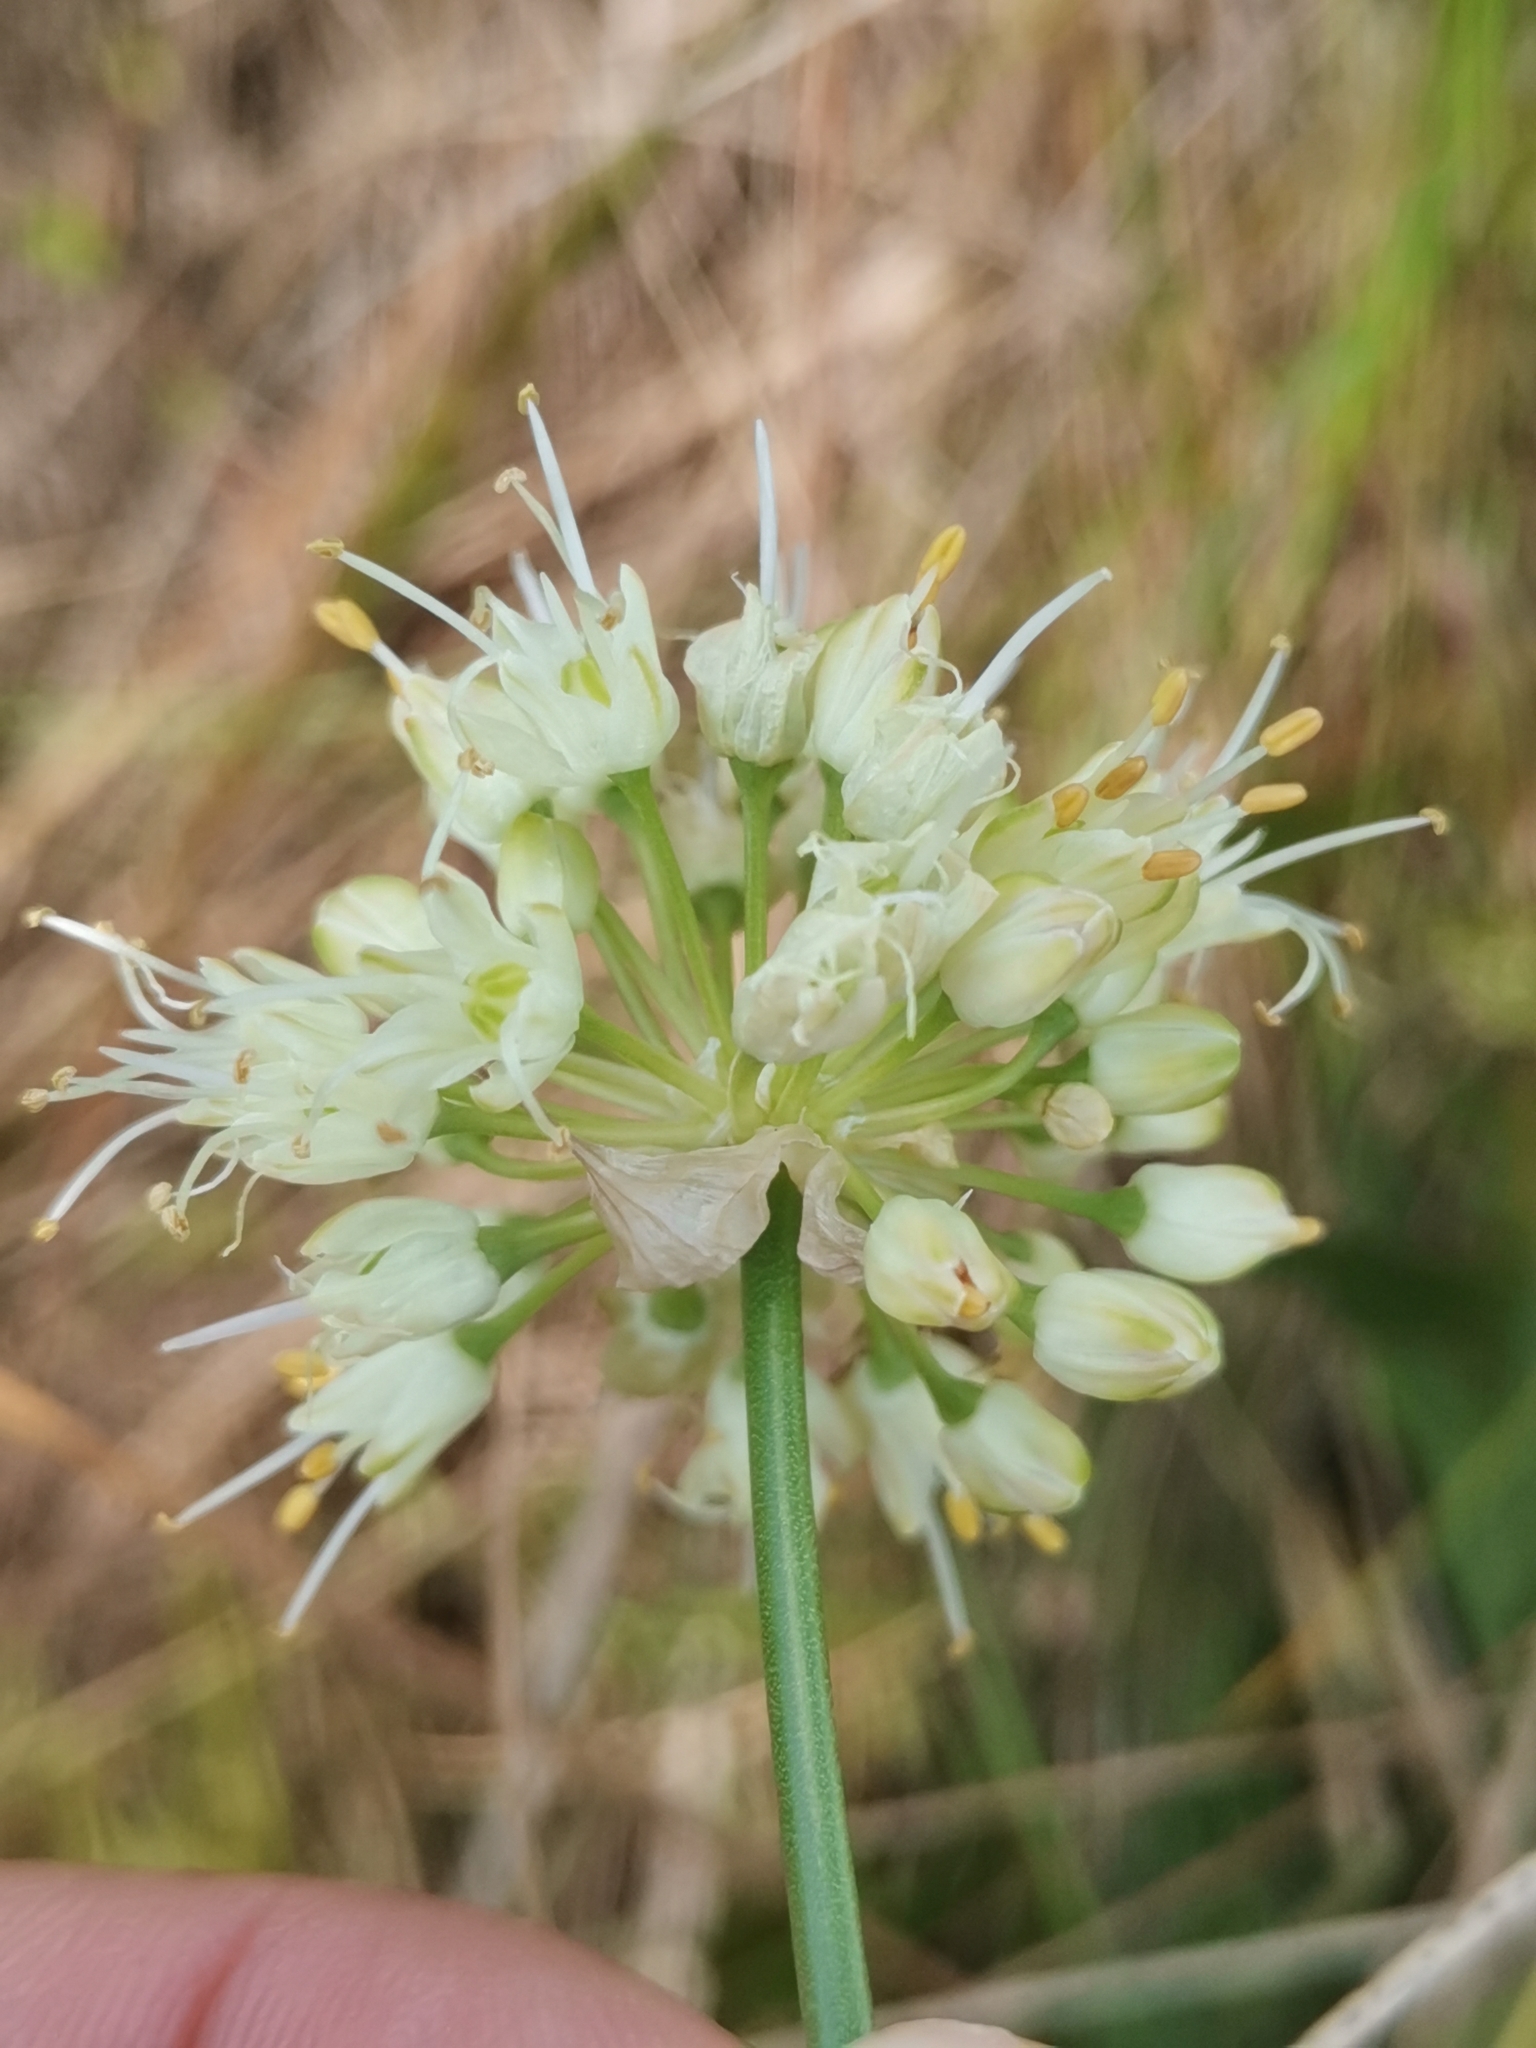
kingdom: Plantae
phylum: Tracheophyta
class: Liliopsida
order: Asparagales
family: Amaryllidaceae
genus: Allium
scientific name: Allium ericetorum
